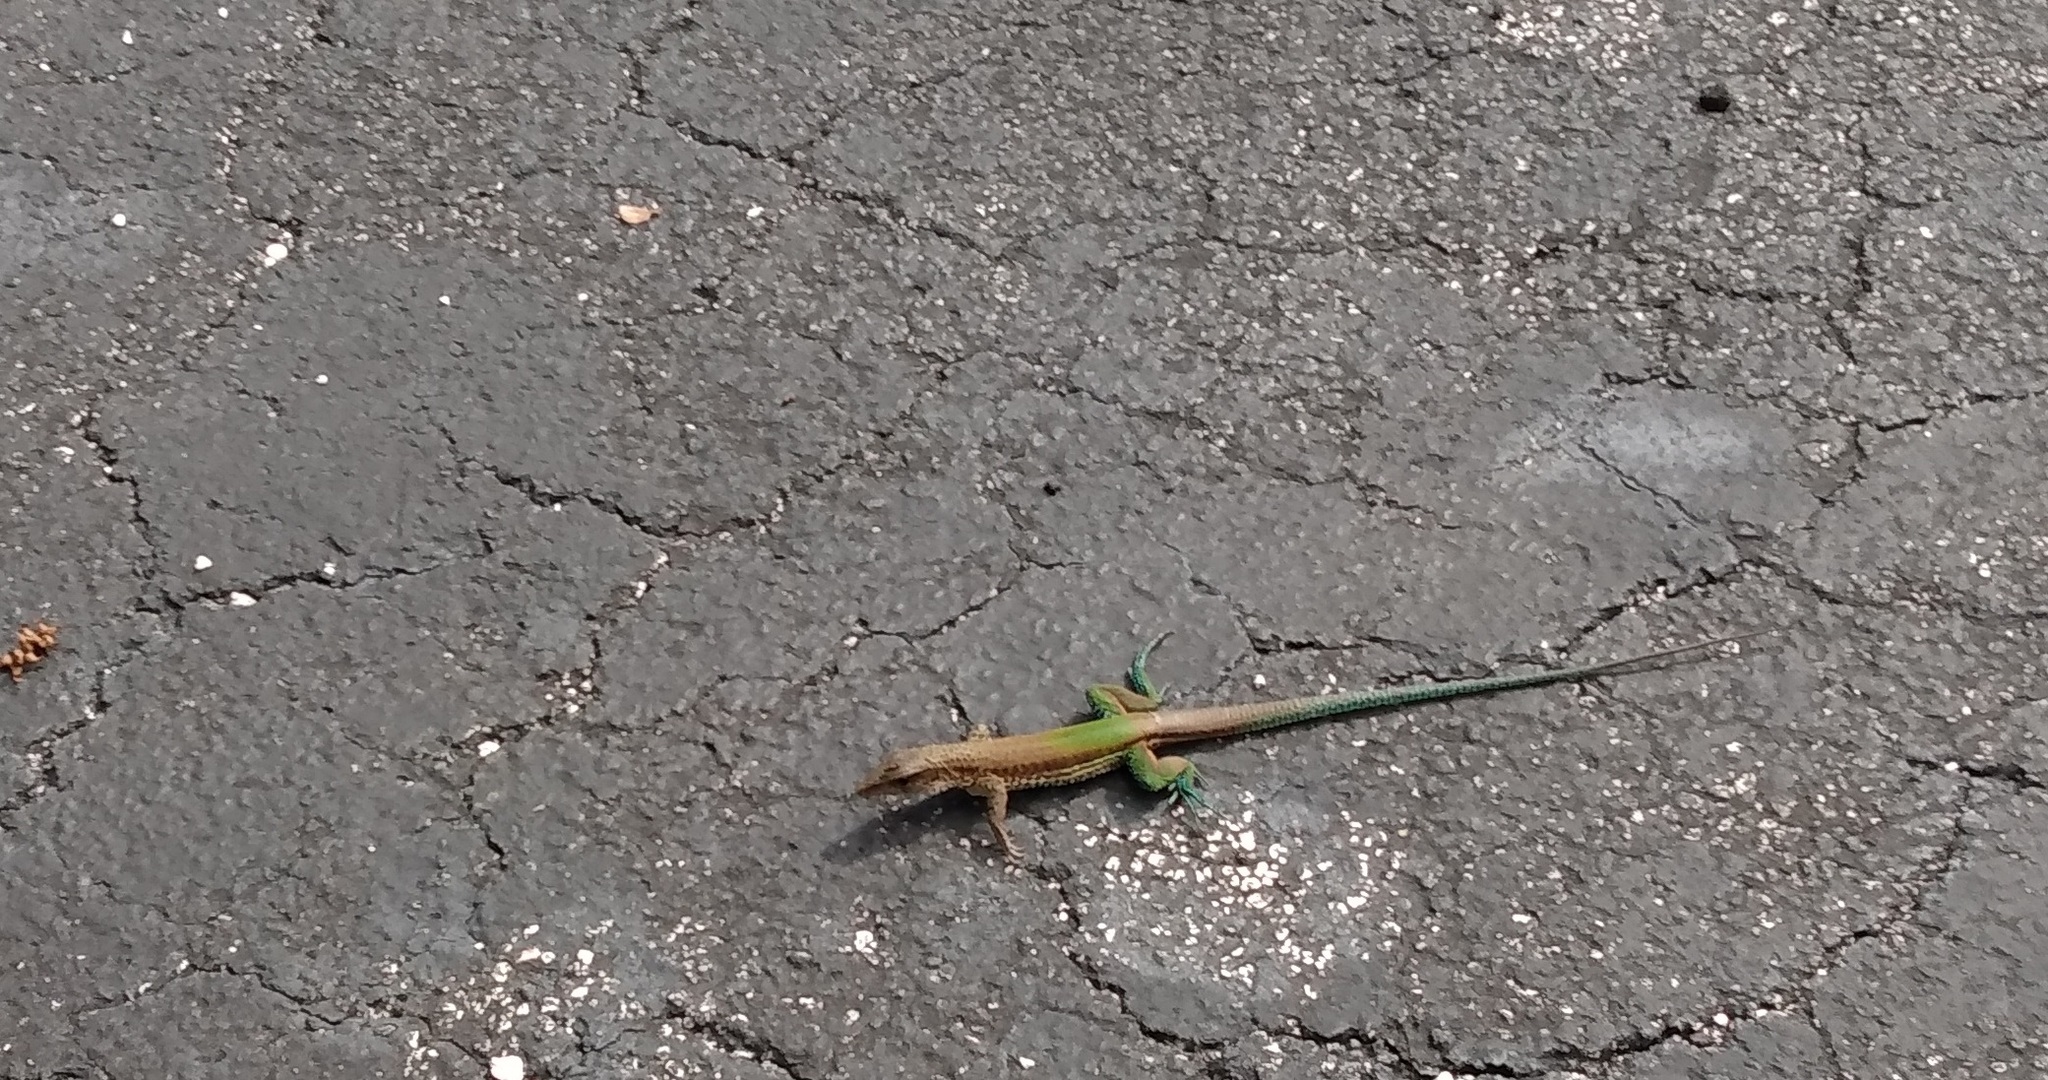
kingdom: Animalia
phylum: Chordata
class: Squamata
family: Teiidae
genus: Ameiva
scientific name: Ameiva ameiva
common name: Giant ameiva
